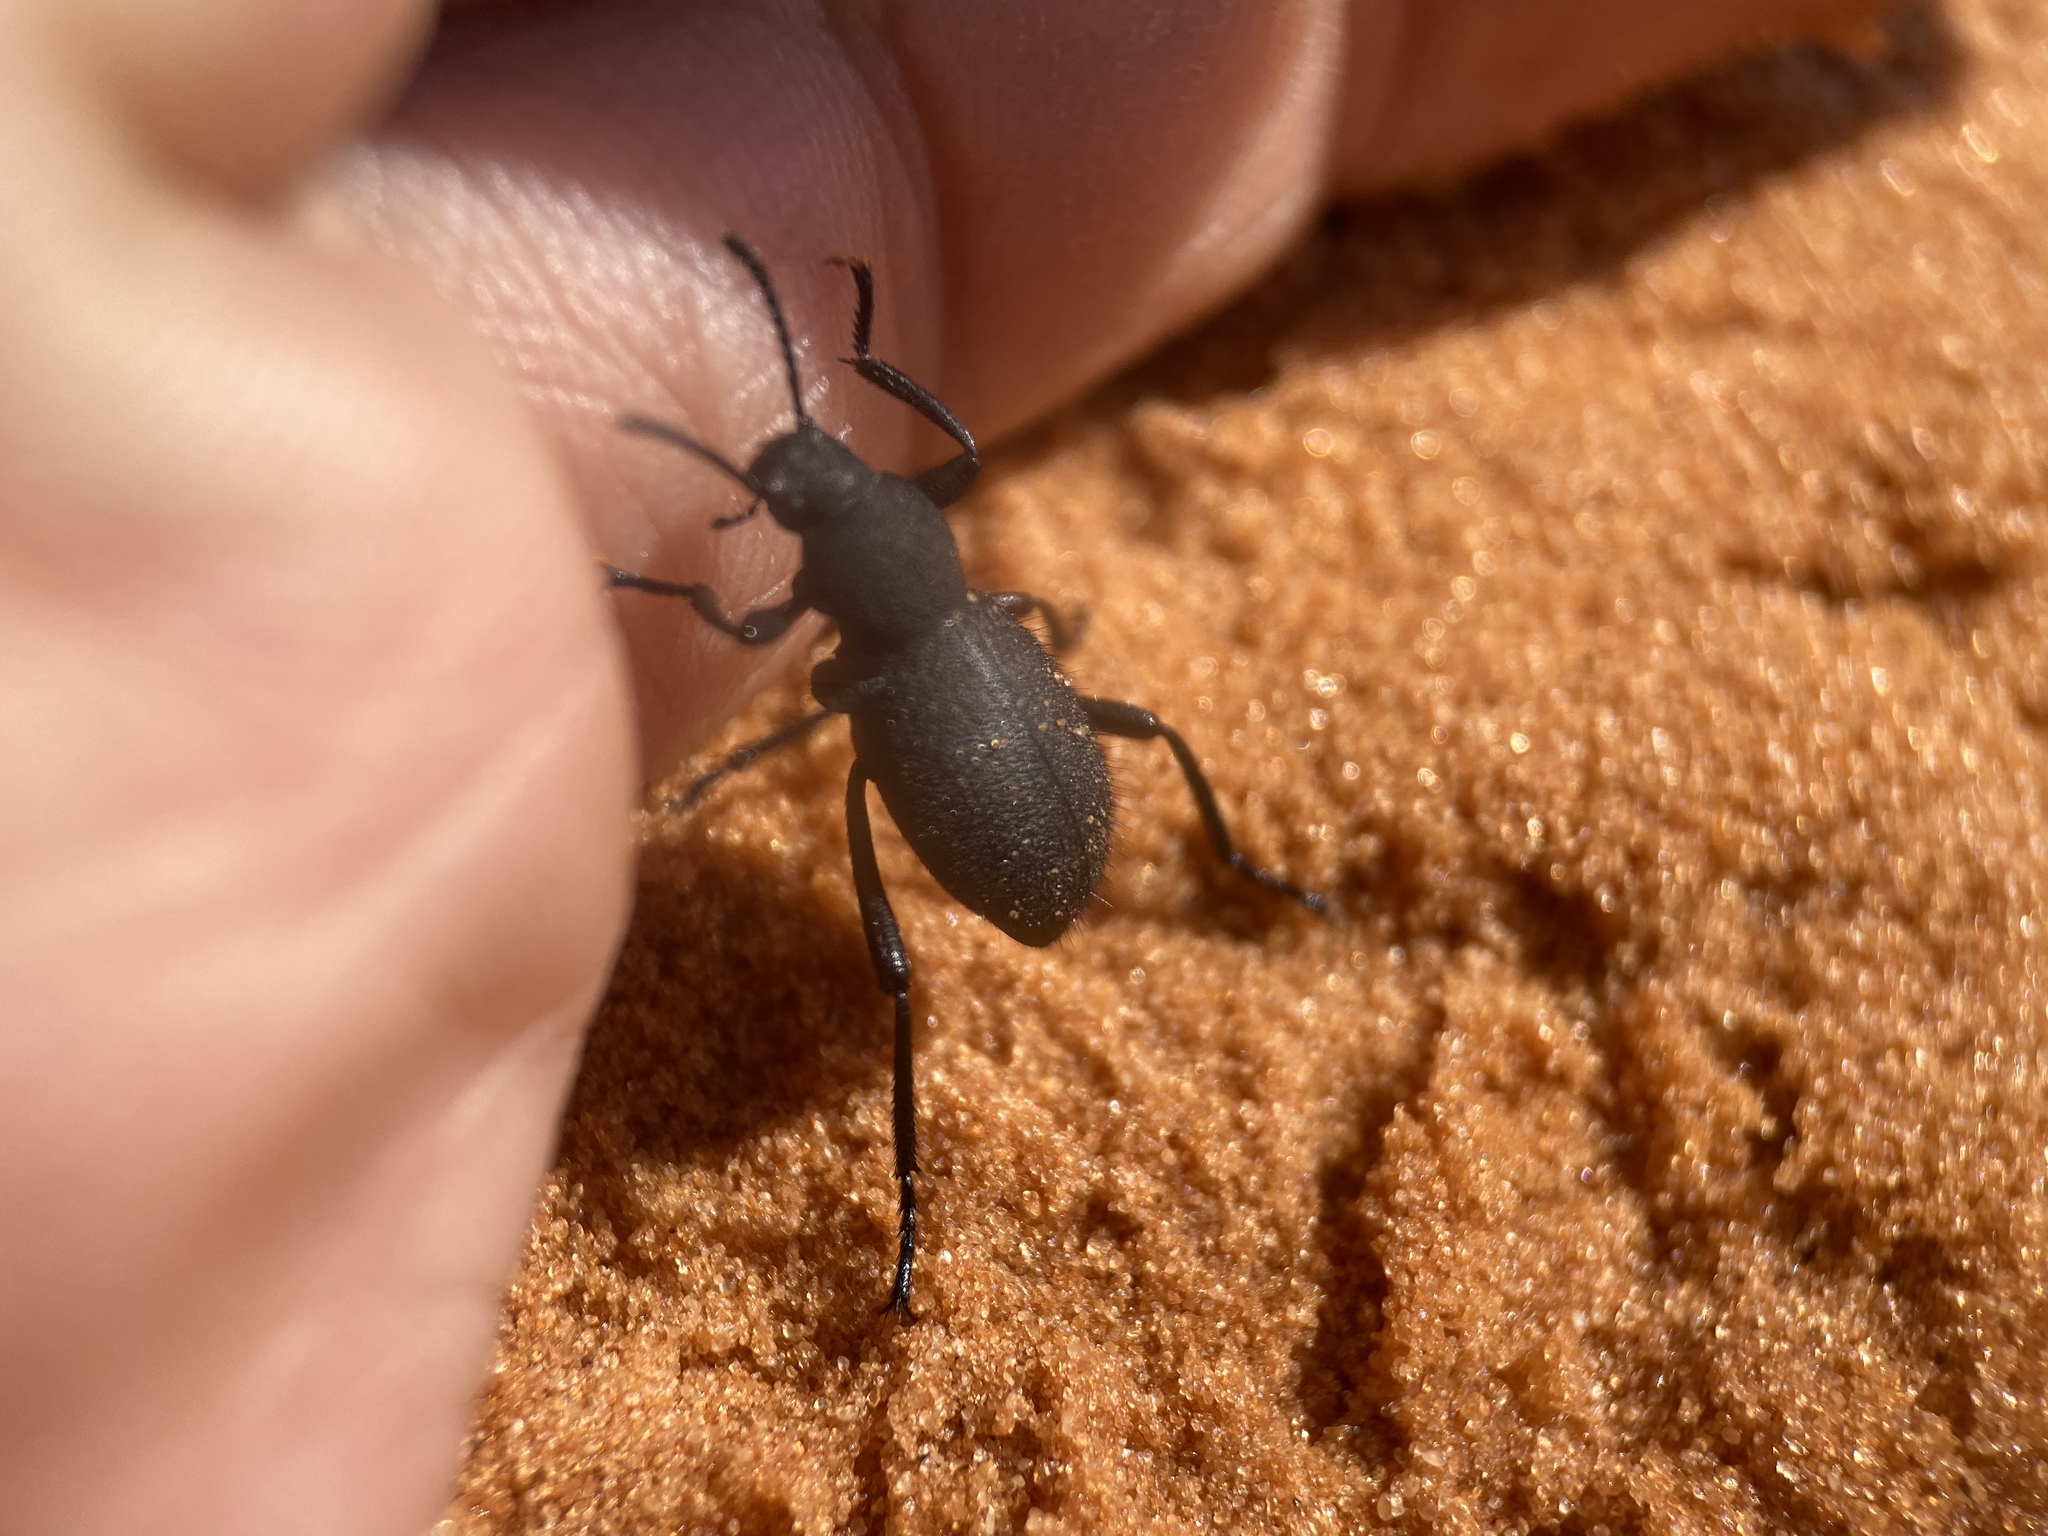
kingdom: Animalia
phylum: Arthropoda
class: Insecta
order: Coleoptera
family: Tenebrionidae
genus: Eleodes
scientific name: Eleodes pilosa
